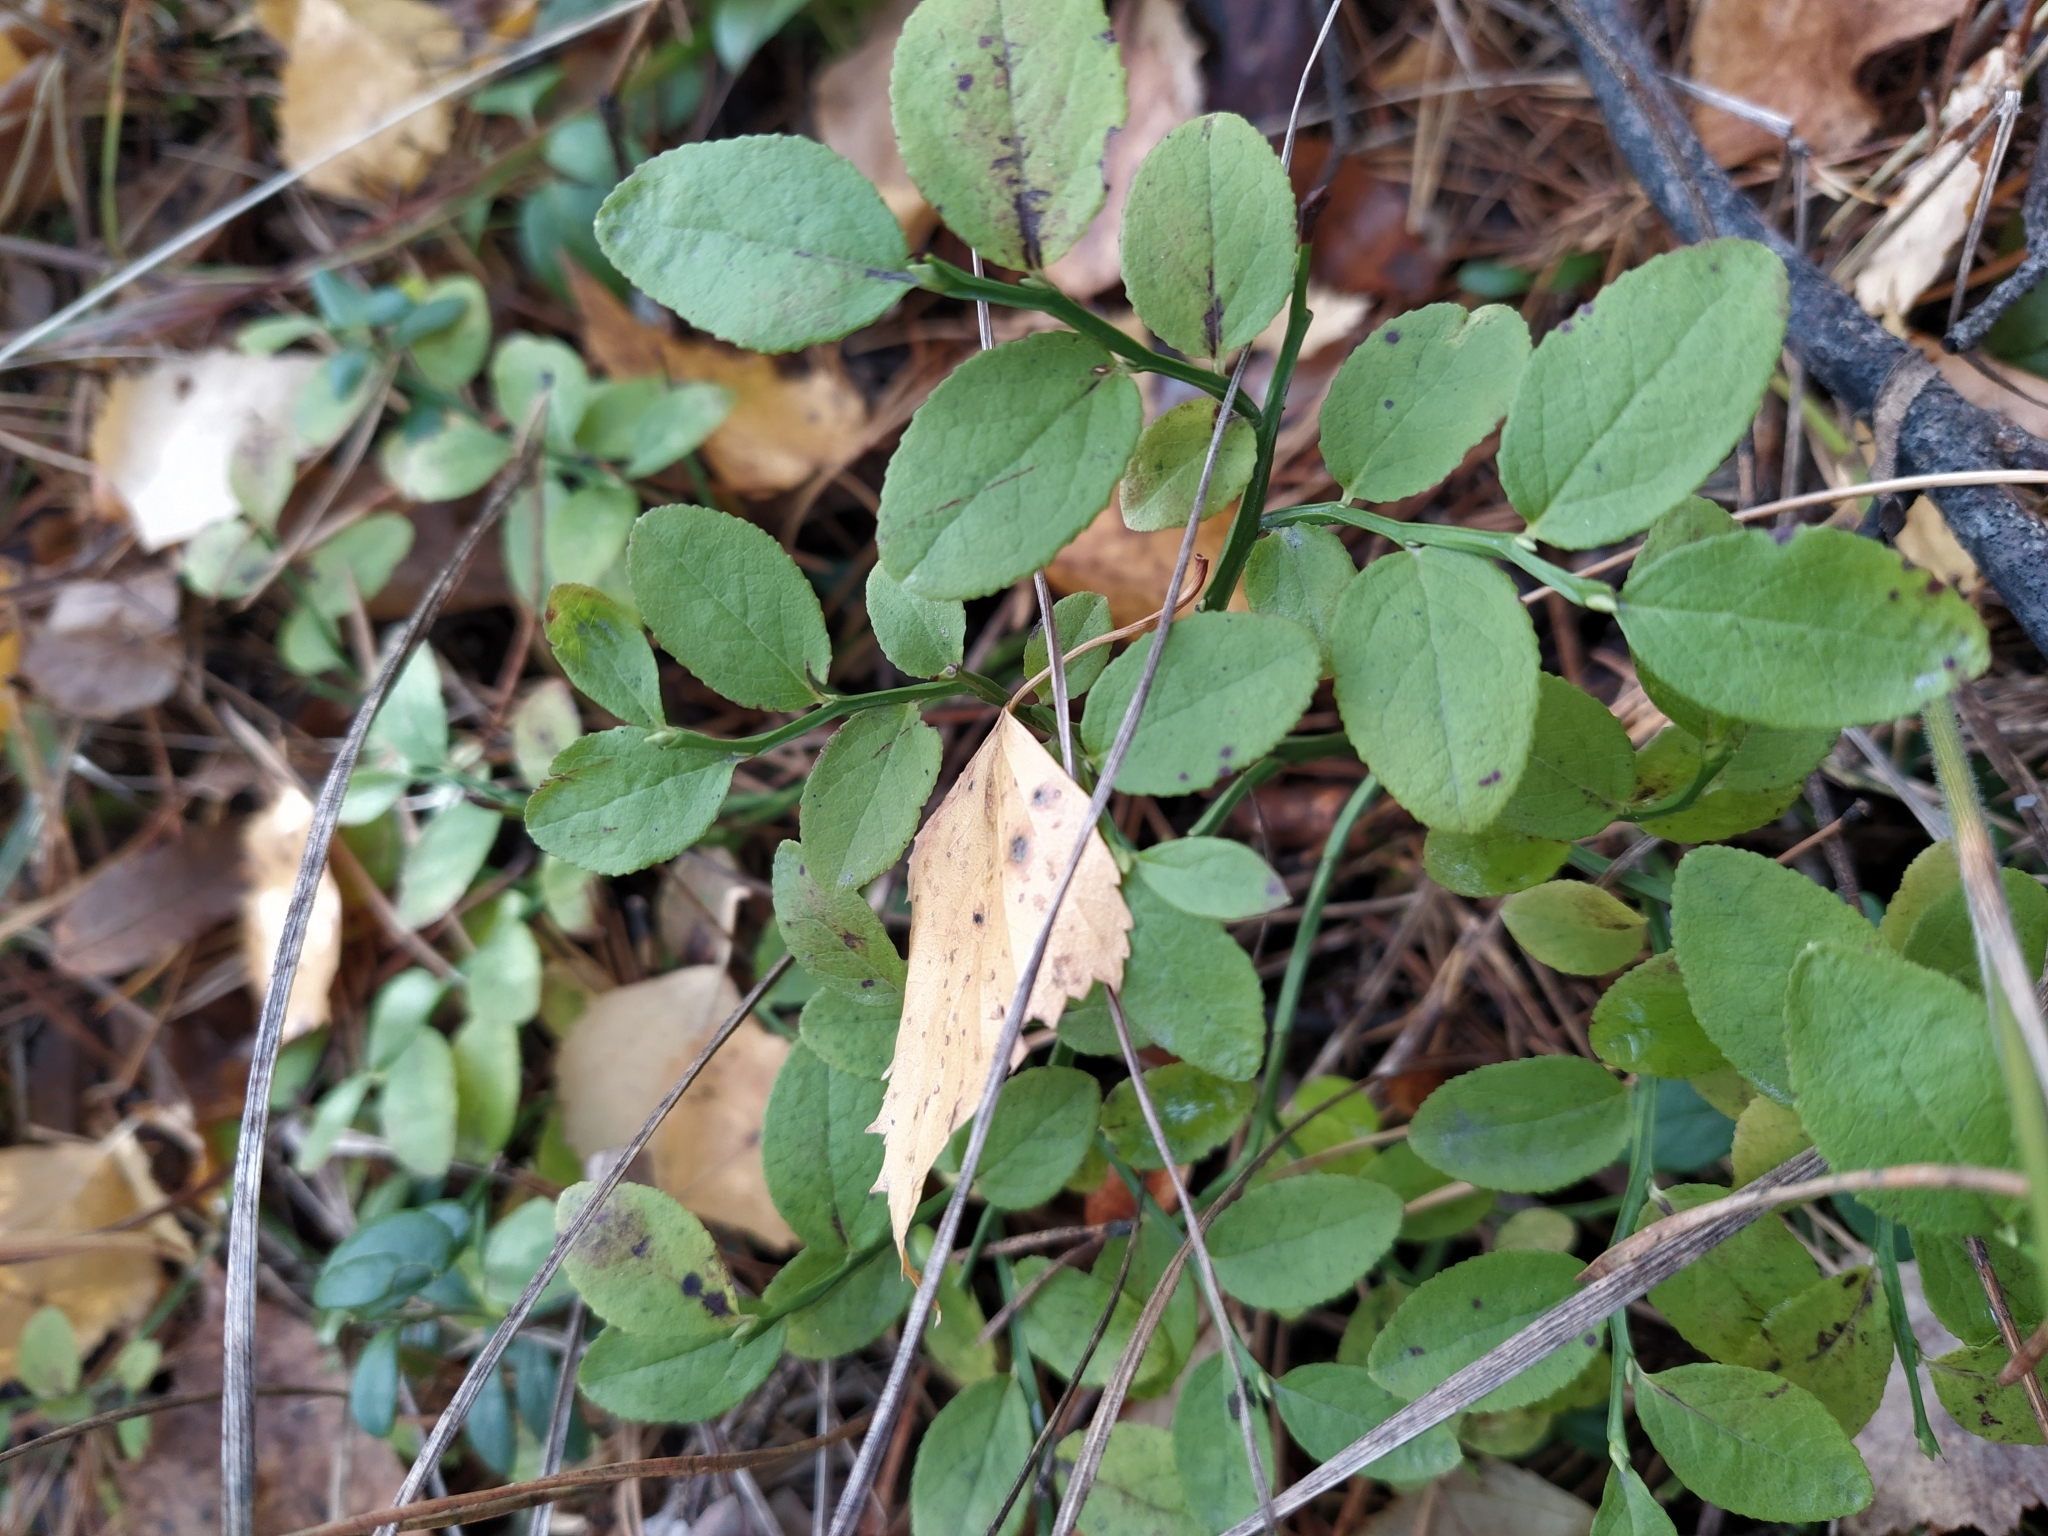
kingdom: Plantae
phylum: Tracheophyta
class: Magnoliopsida
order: Ericales
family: Ericaceae
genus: Vaccinium
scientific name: Vaccinium myrtillus
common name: Bilberry
